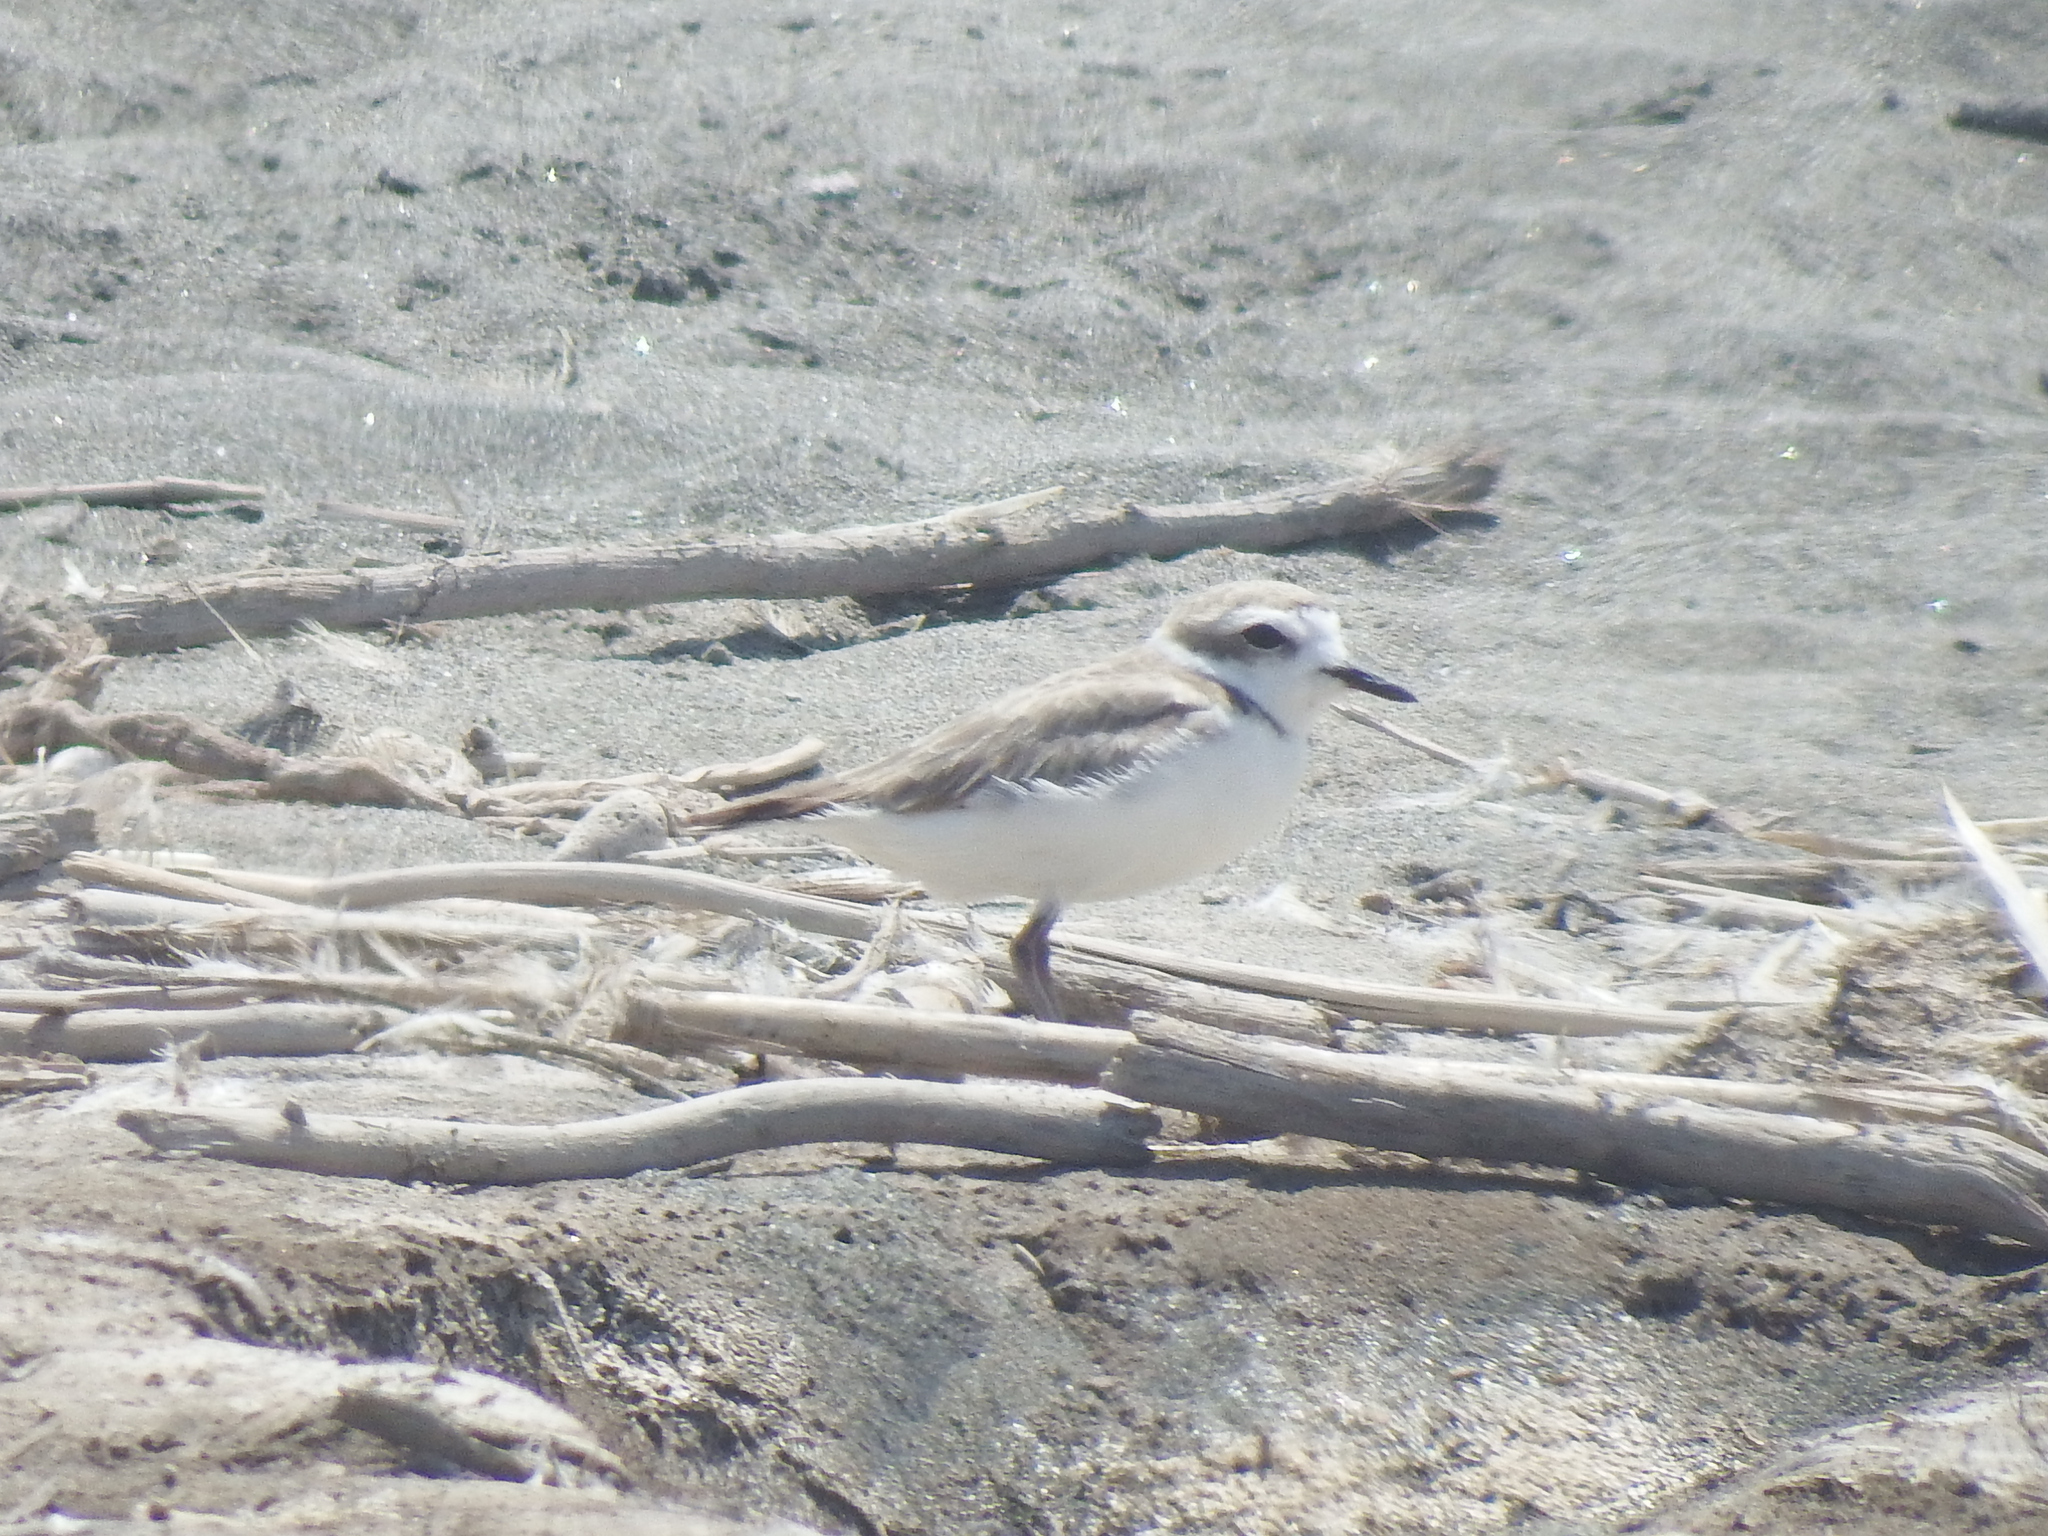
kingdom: Animalia
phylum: Chordata
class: Aves
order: Charadriiformes
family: Charadriidae
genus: Anarhynchus
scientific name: Anarhynchus
